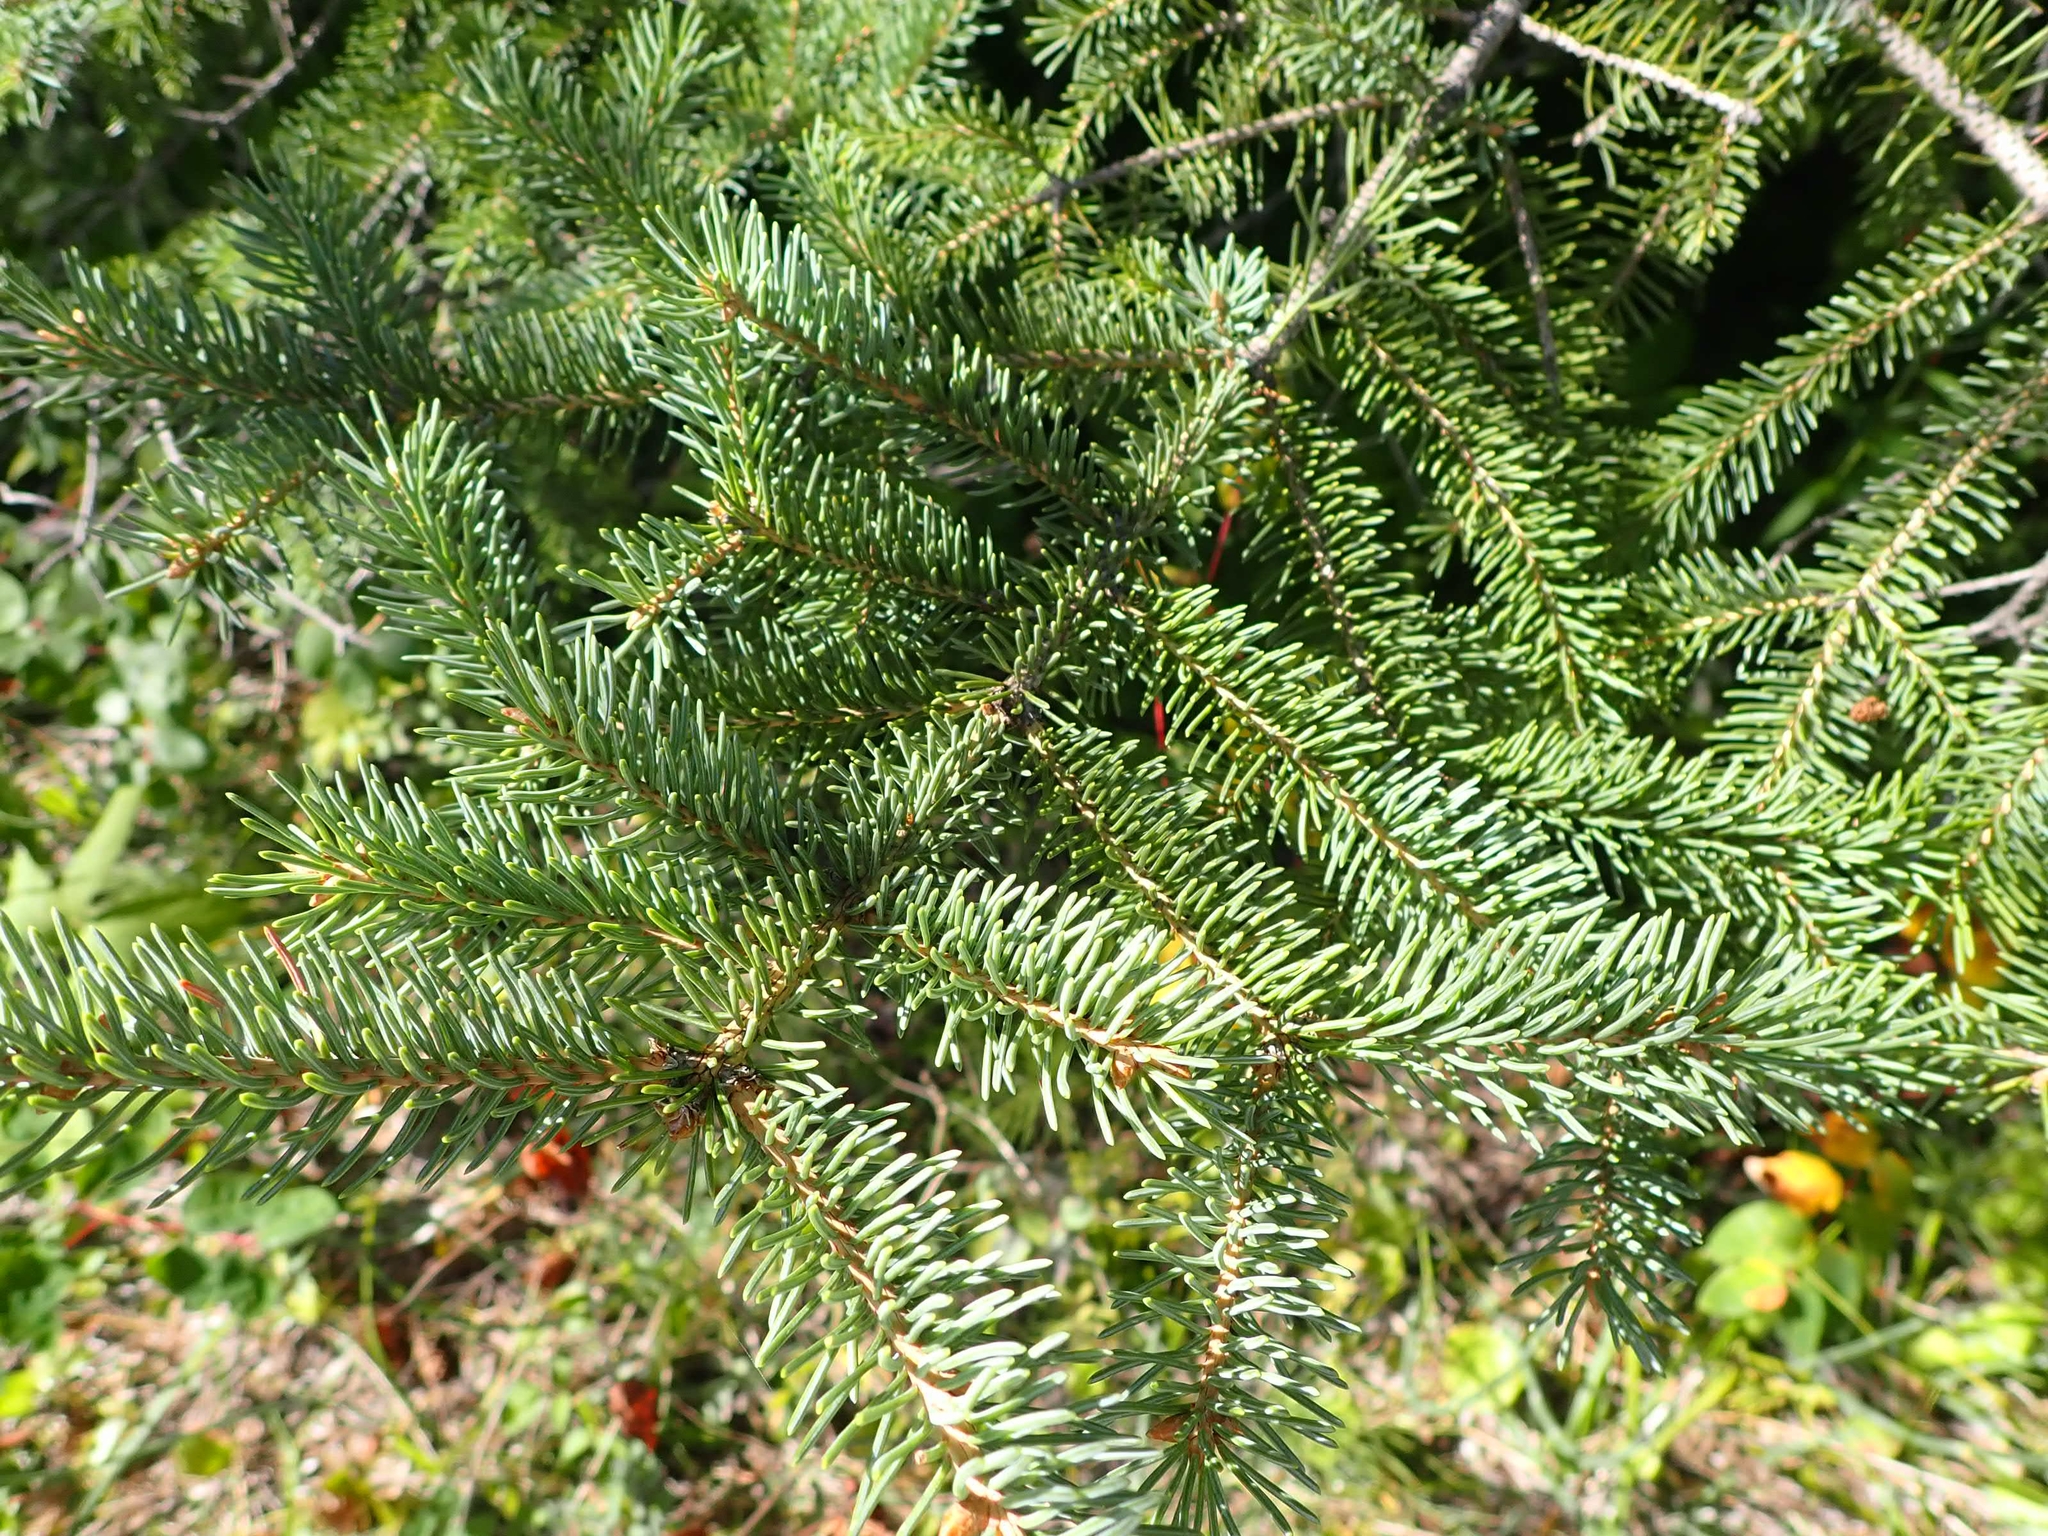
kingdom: Plantae
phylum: Tracheophyta
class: Pinopsida
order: Pinales
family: Pinaceae
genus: Picea
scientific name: Picea glauca
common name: White spruce
